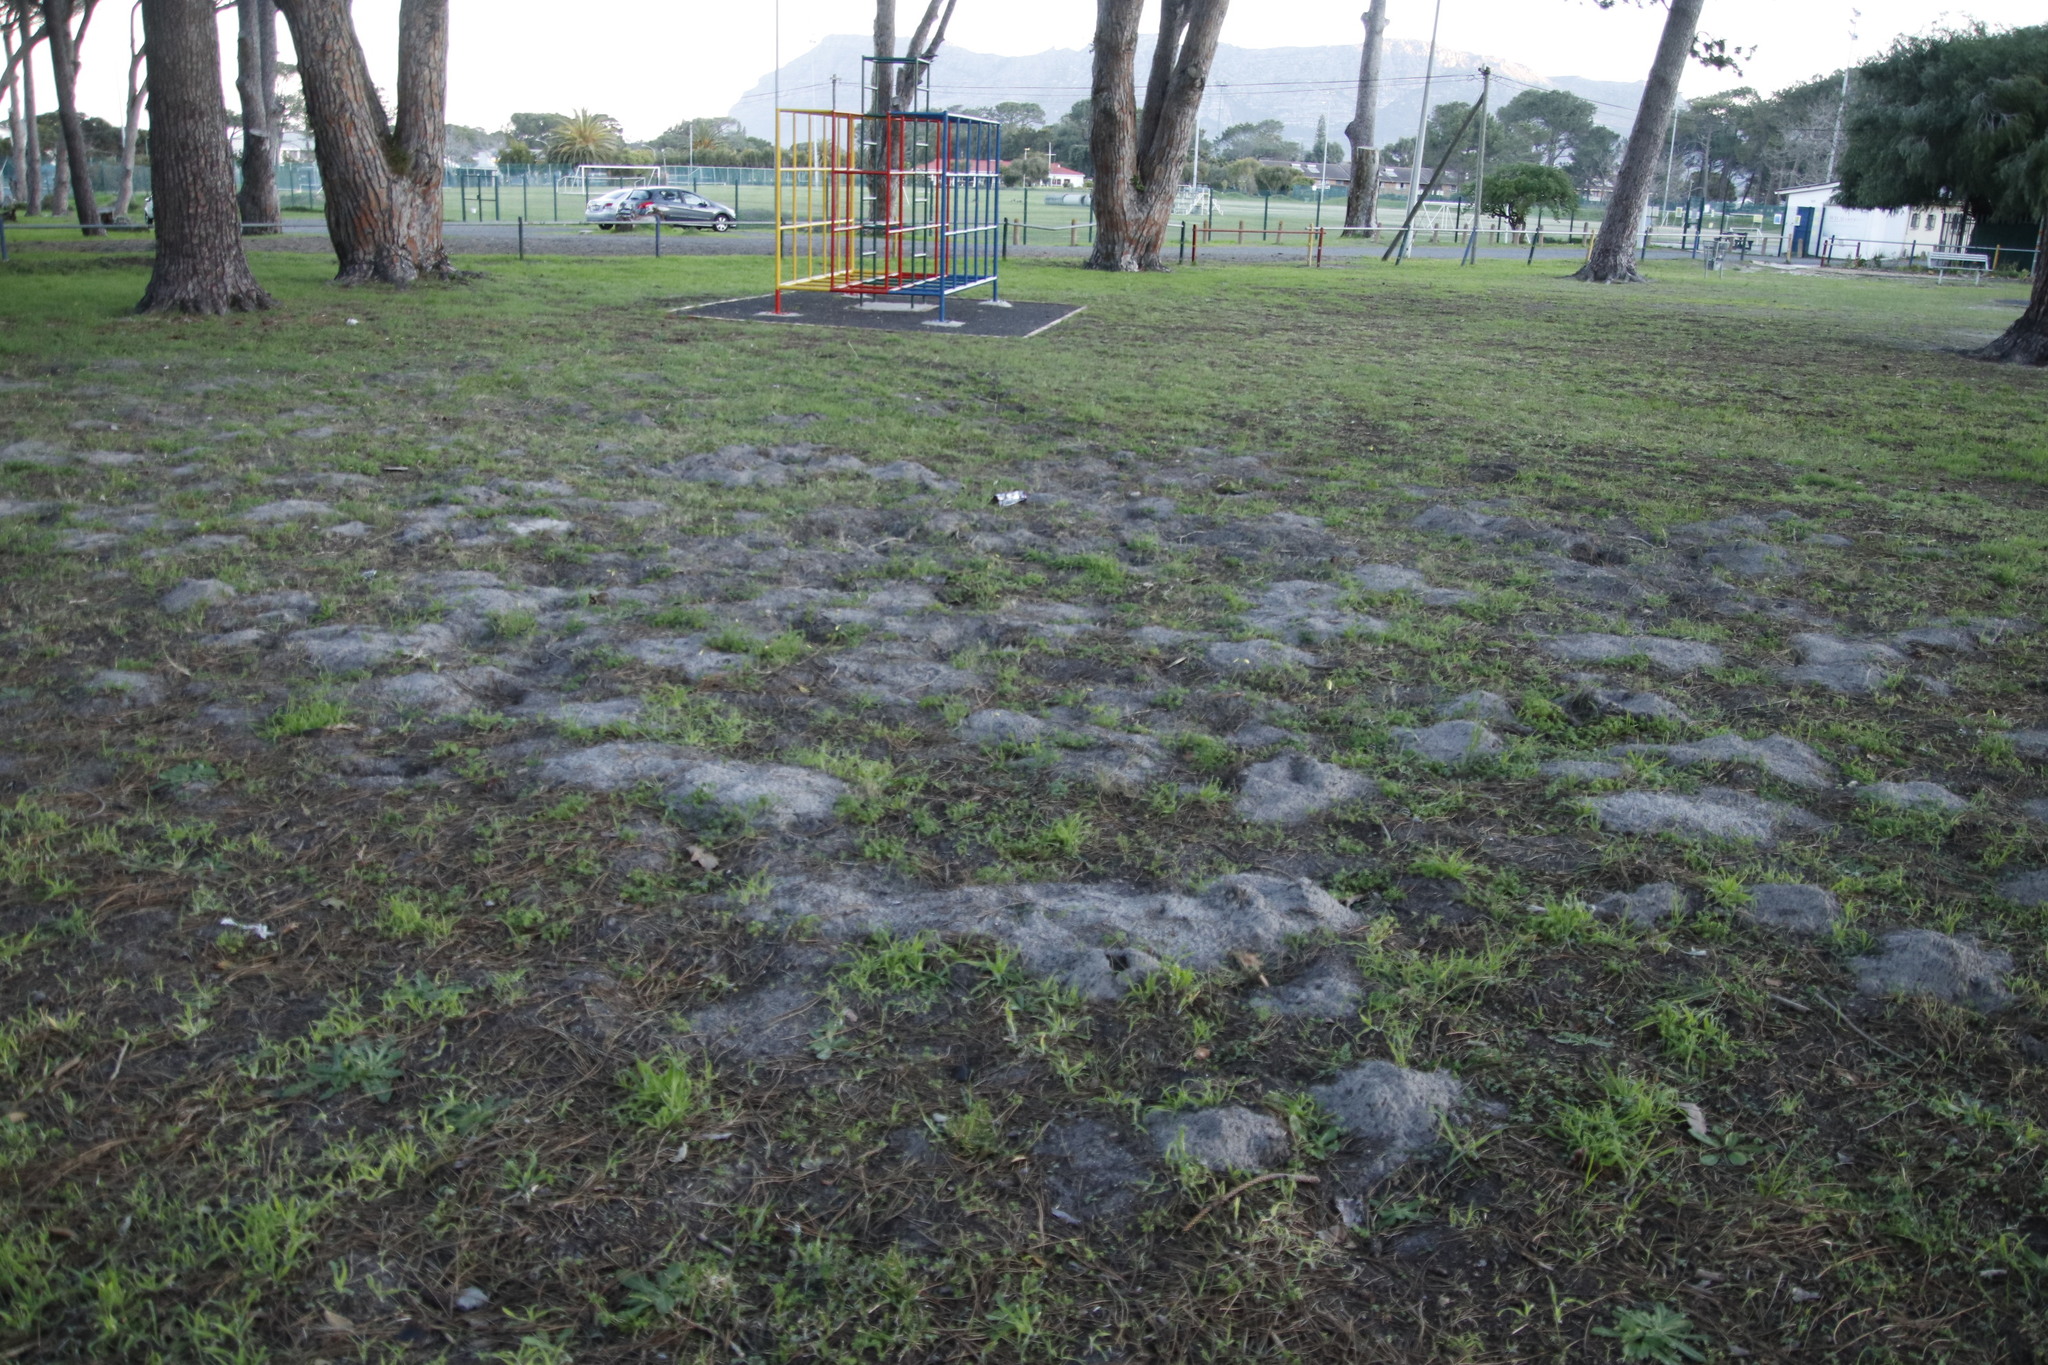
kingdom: Animalia
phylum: Chordata
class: Mammalia
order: Rodentia
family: Bathyergidae
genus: Bathyergus
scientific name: Bathyergus suillus
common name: Cape dune mole rat
